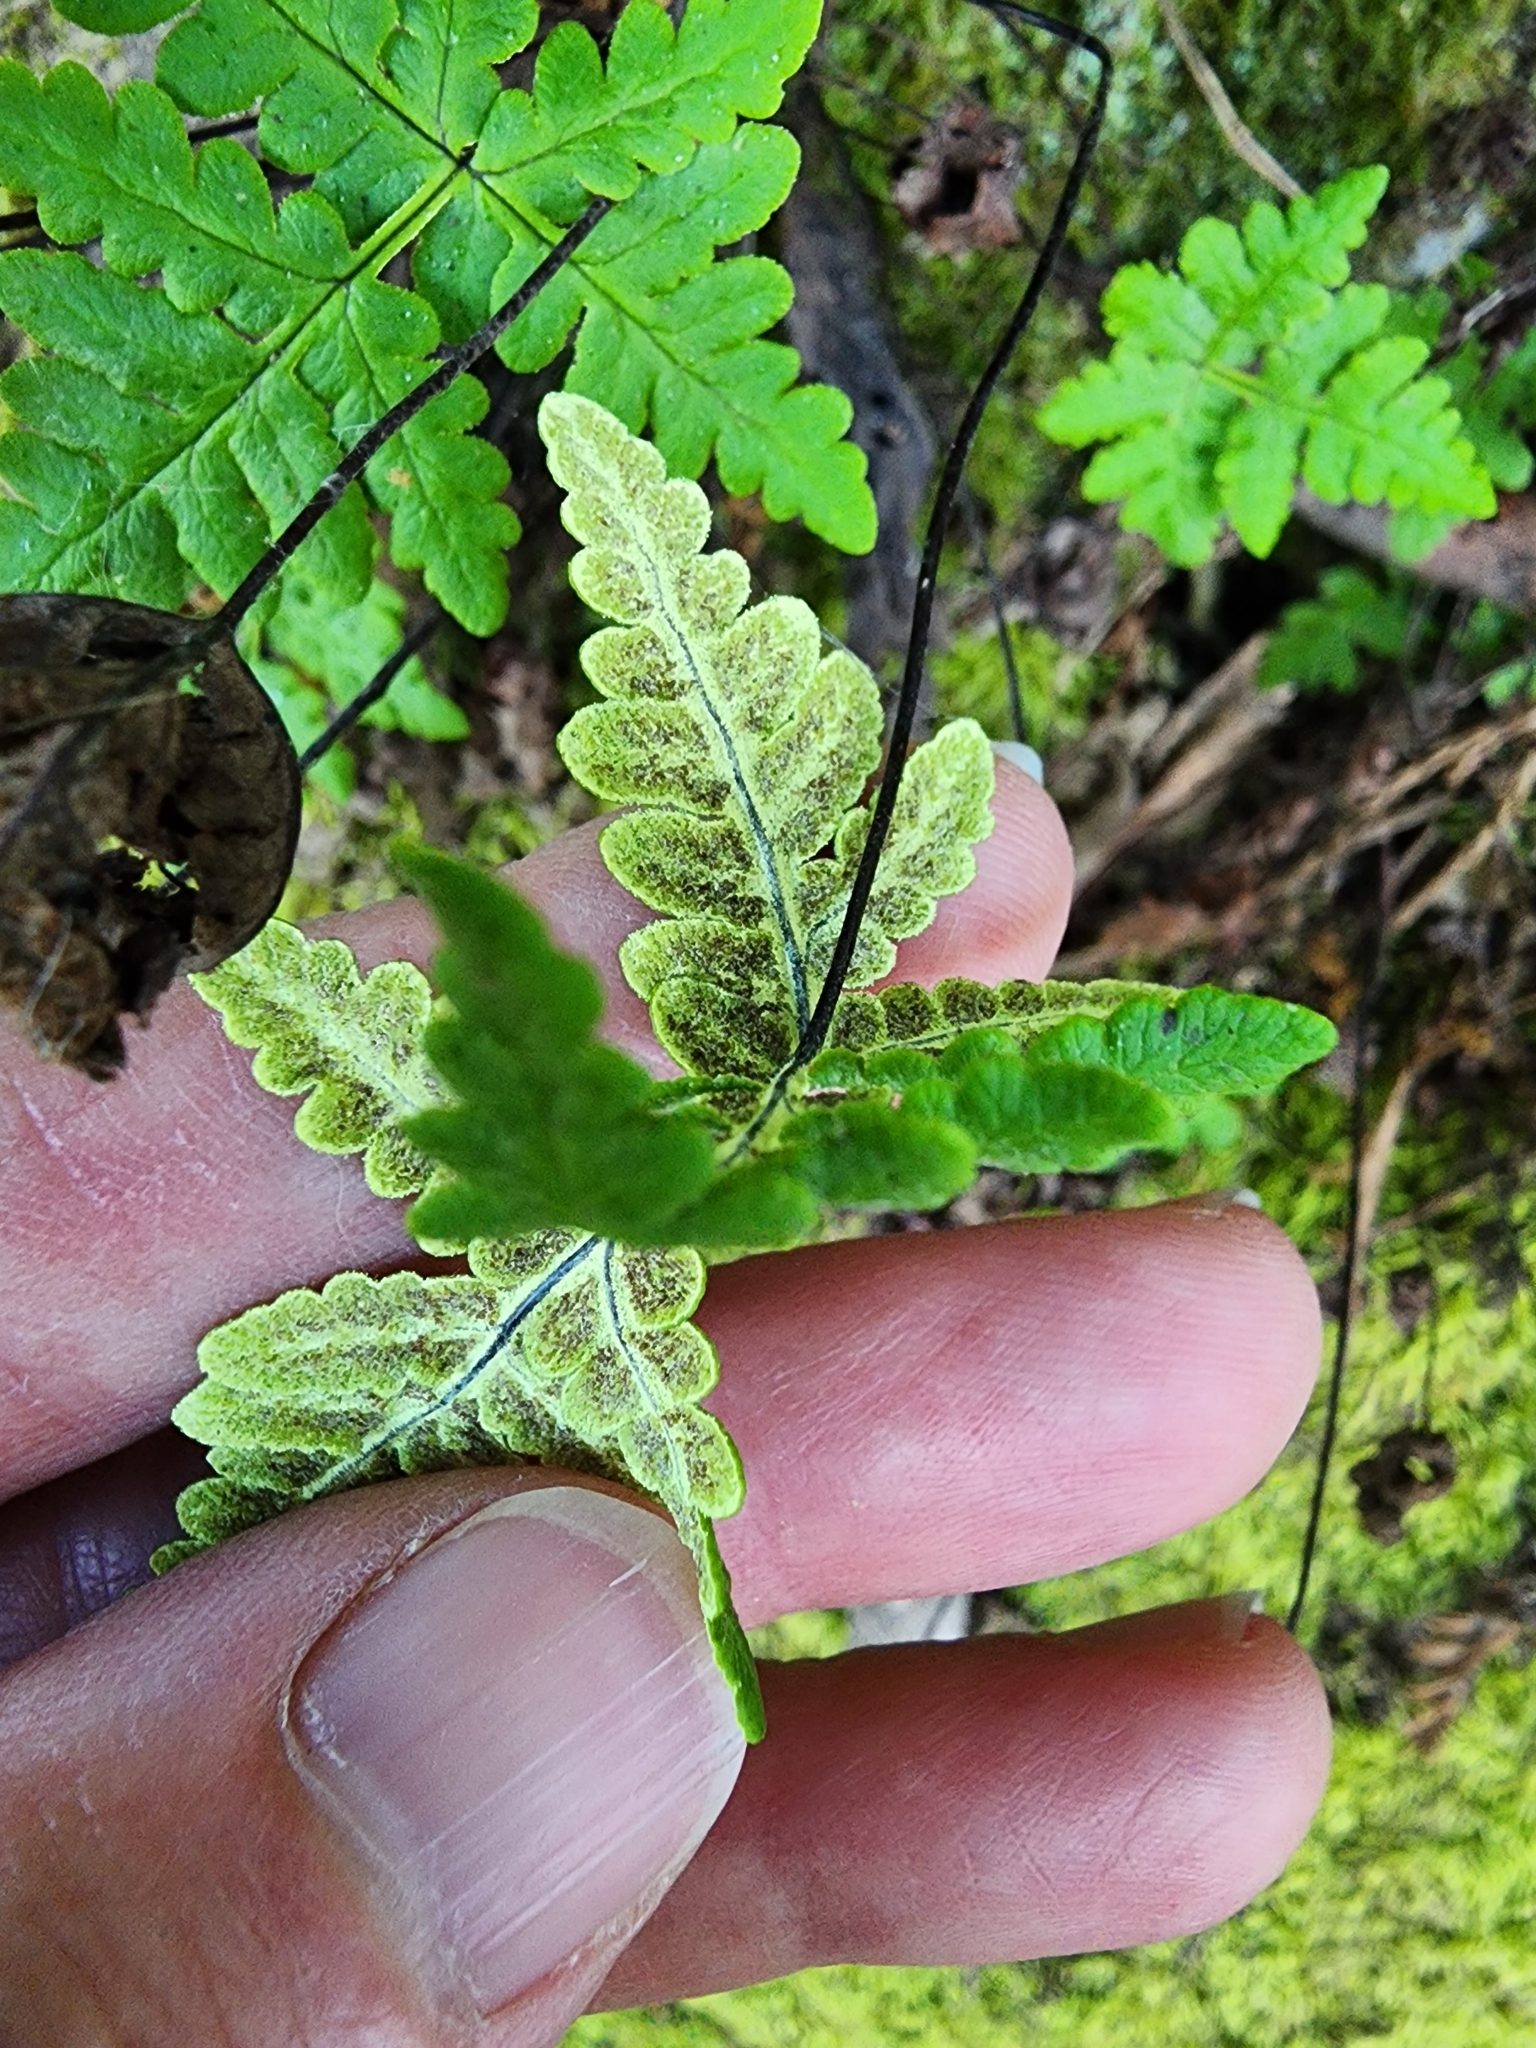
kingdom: Plantae
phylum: Tracheophyta
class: Polypodiopsida
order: Polypodiales
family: Pteridaceae
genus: Pentagramma
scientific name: Pentagramma triangularis
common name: Gold fern
